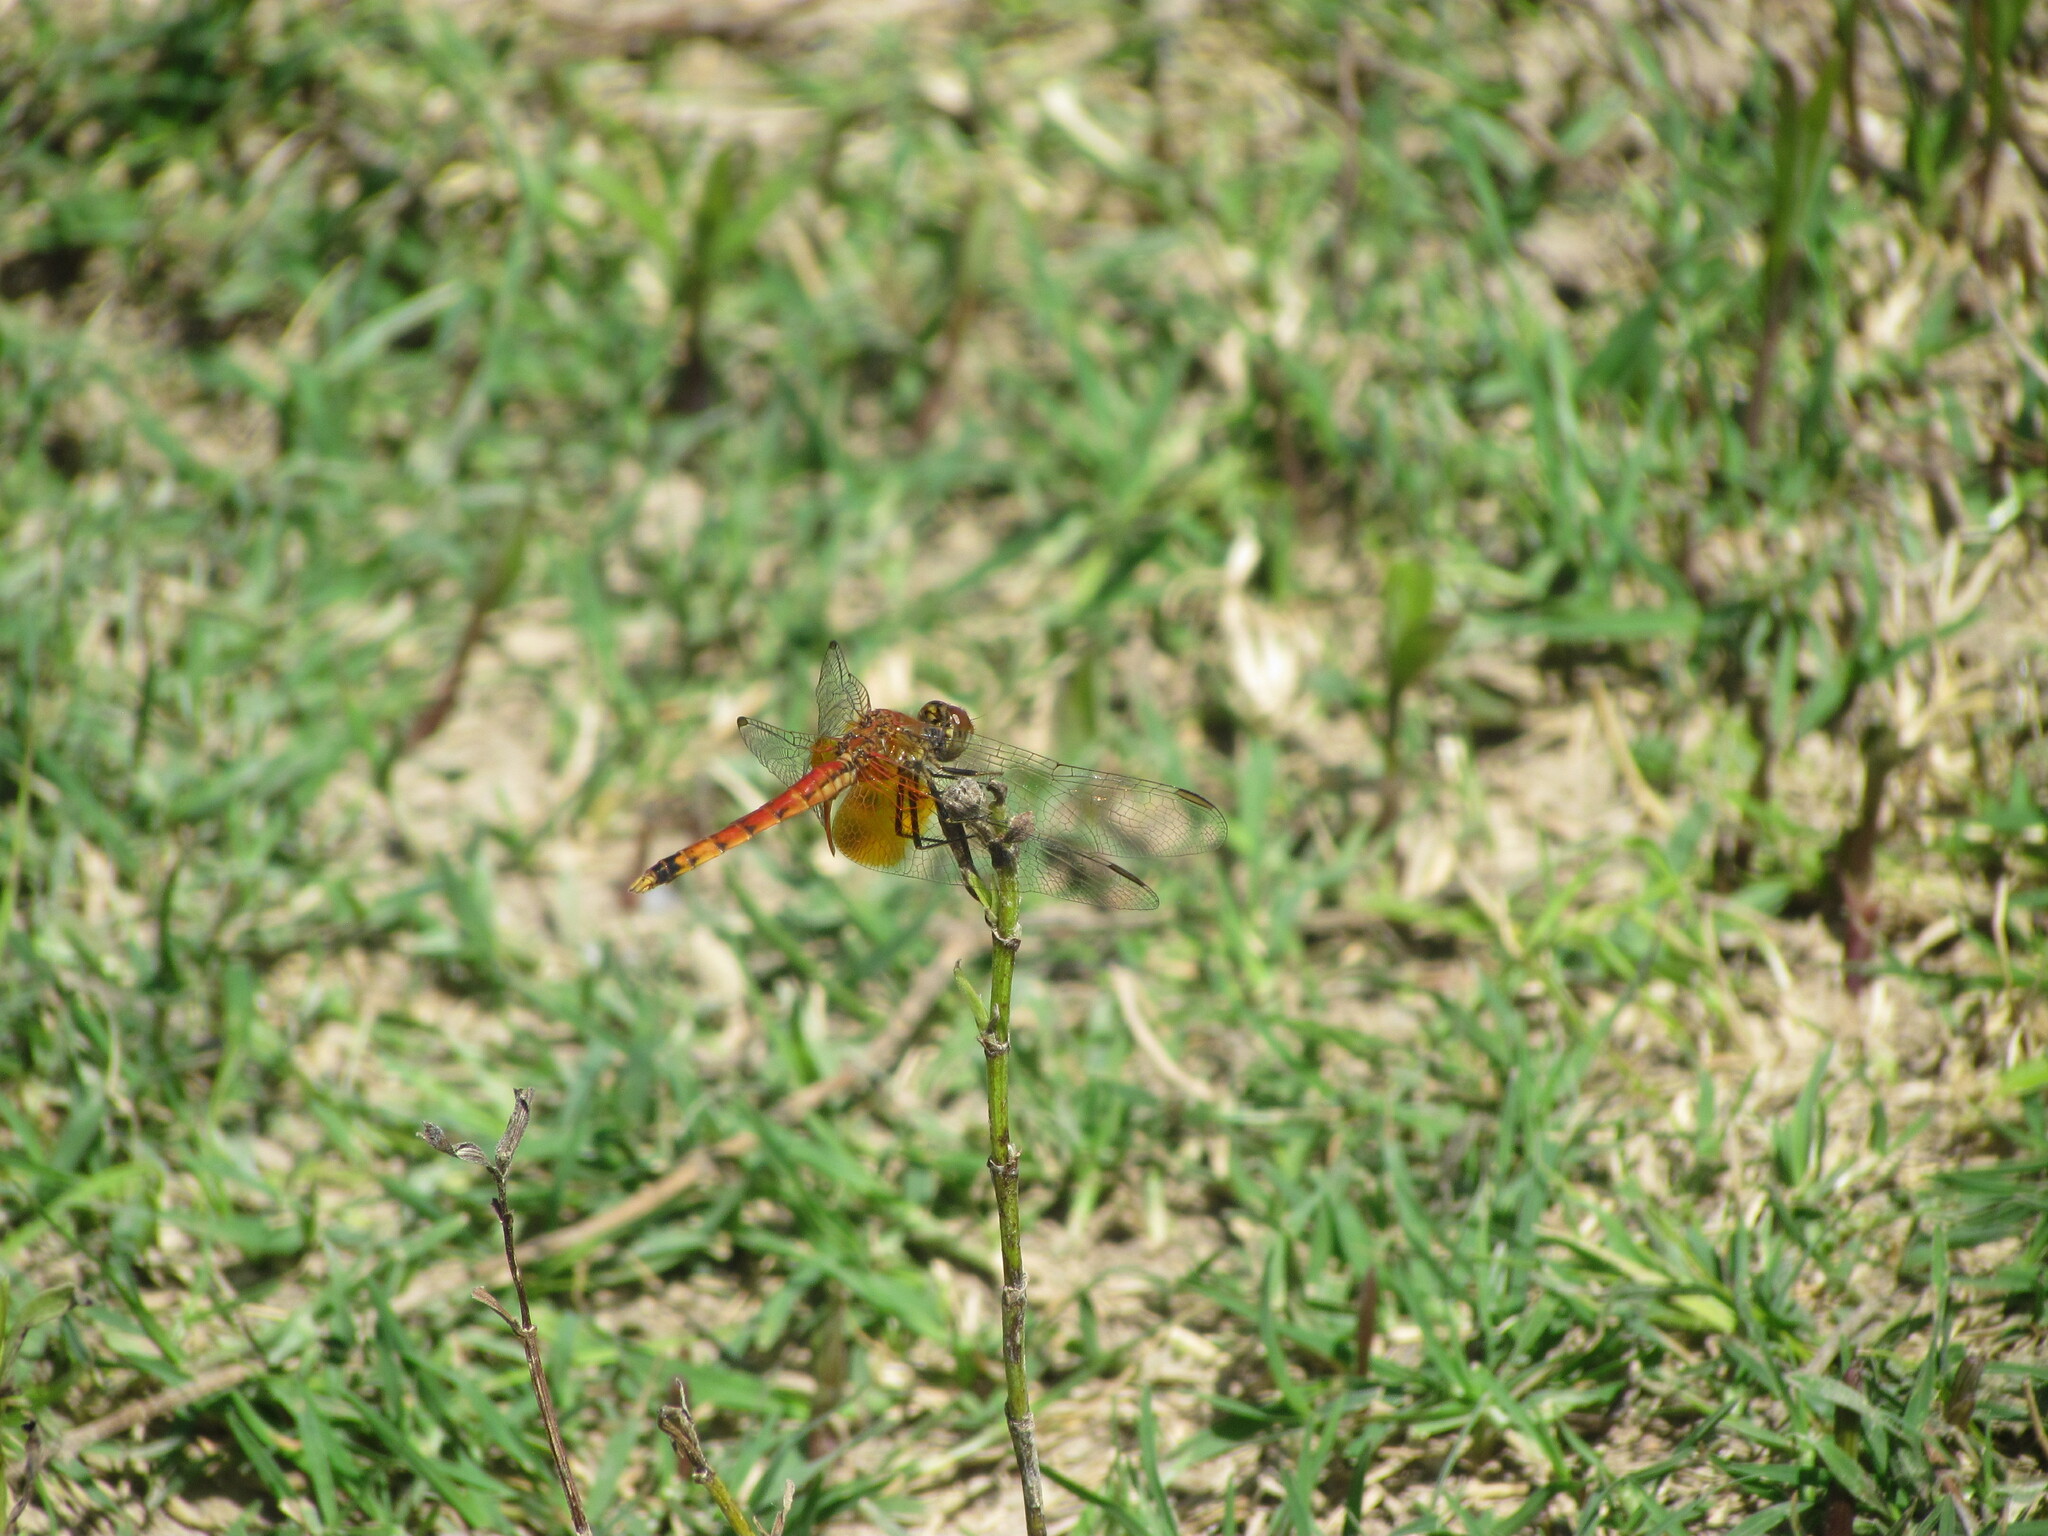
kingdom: Animalia
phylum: Arthropoda
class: Insecta
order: Odonata
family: Libellulidae
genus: Erythrodiplax
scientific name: Erythrodiplax corallina
